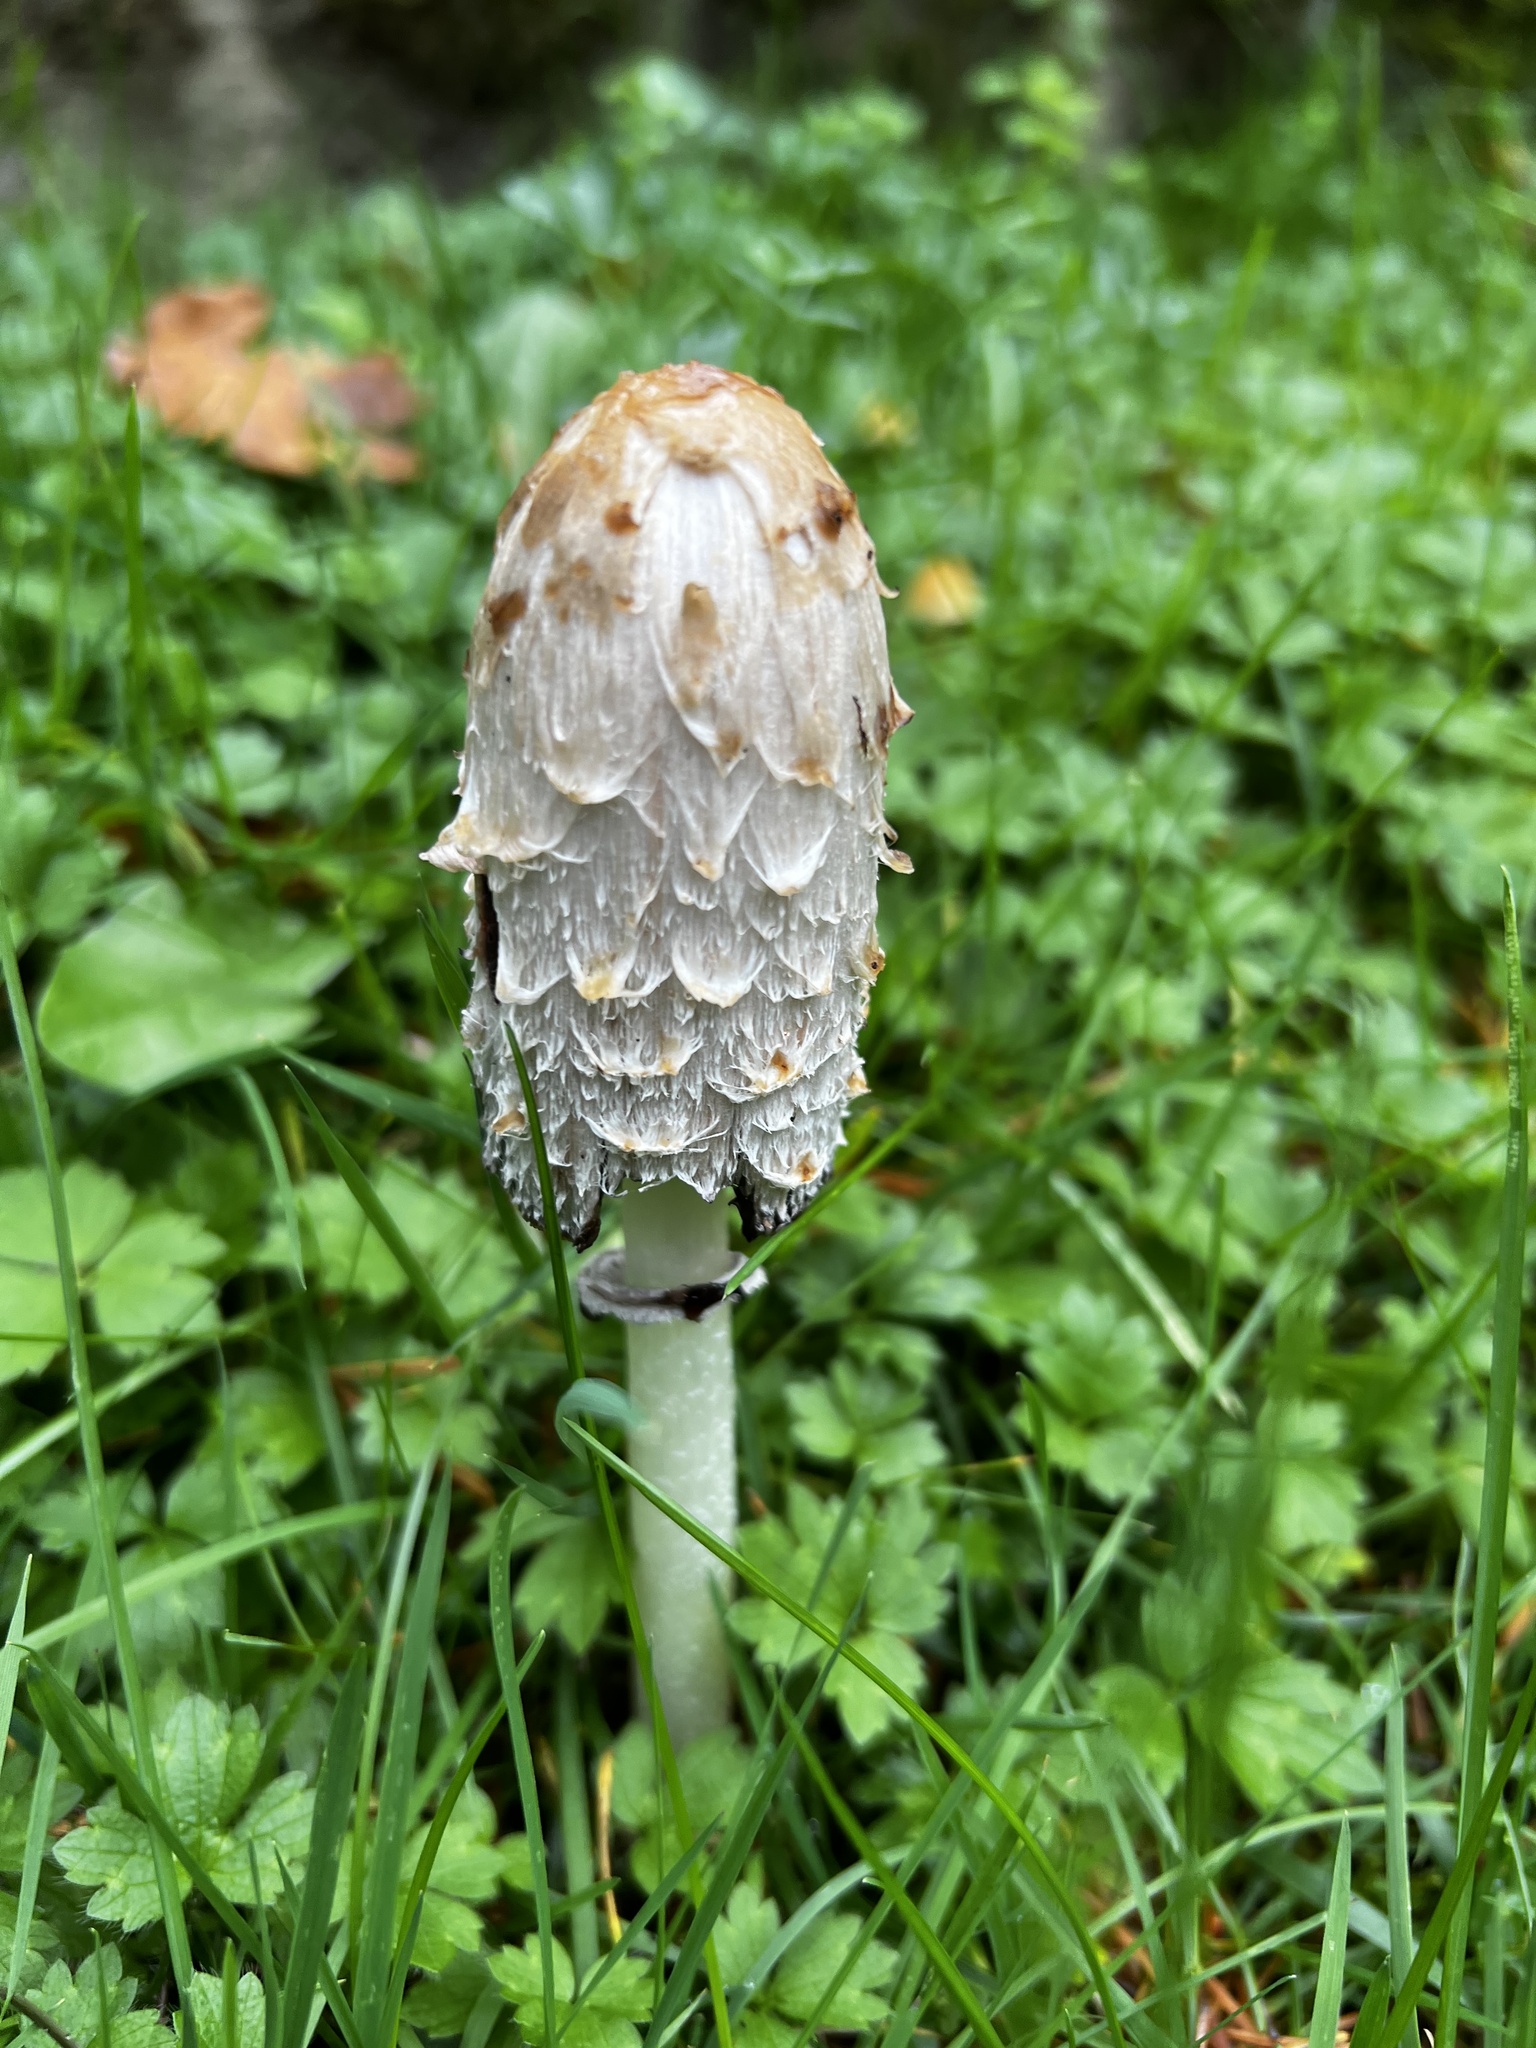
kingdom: Fungi
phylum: Basidiomycota
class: Agaricomycetes
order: Agaricales
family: Agaricaceae
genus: Coprinus
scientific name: Coprinus comatus
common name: Lawyer's wig
